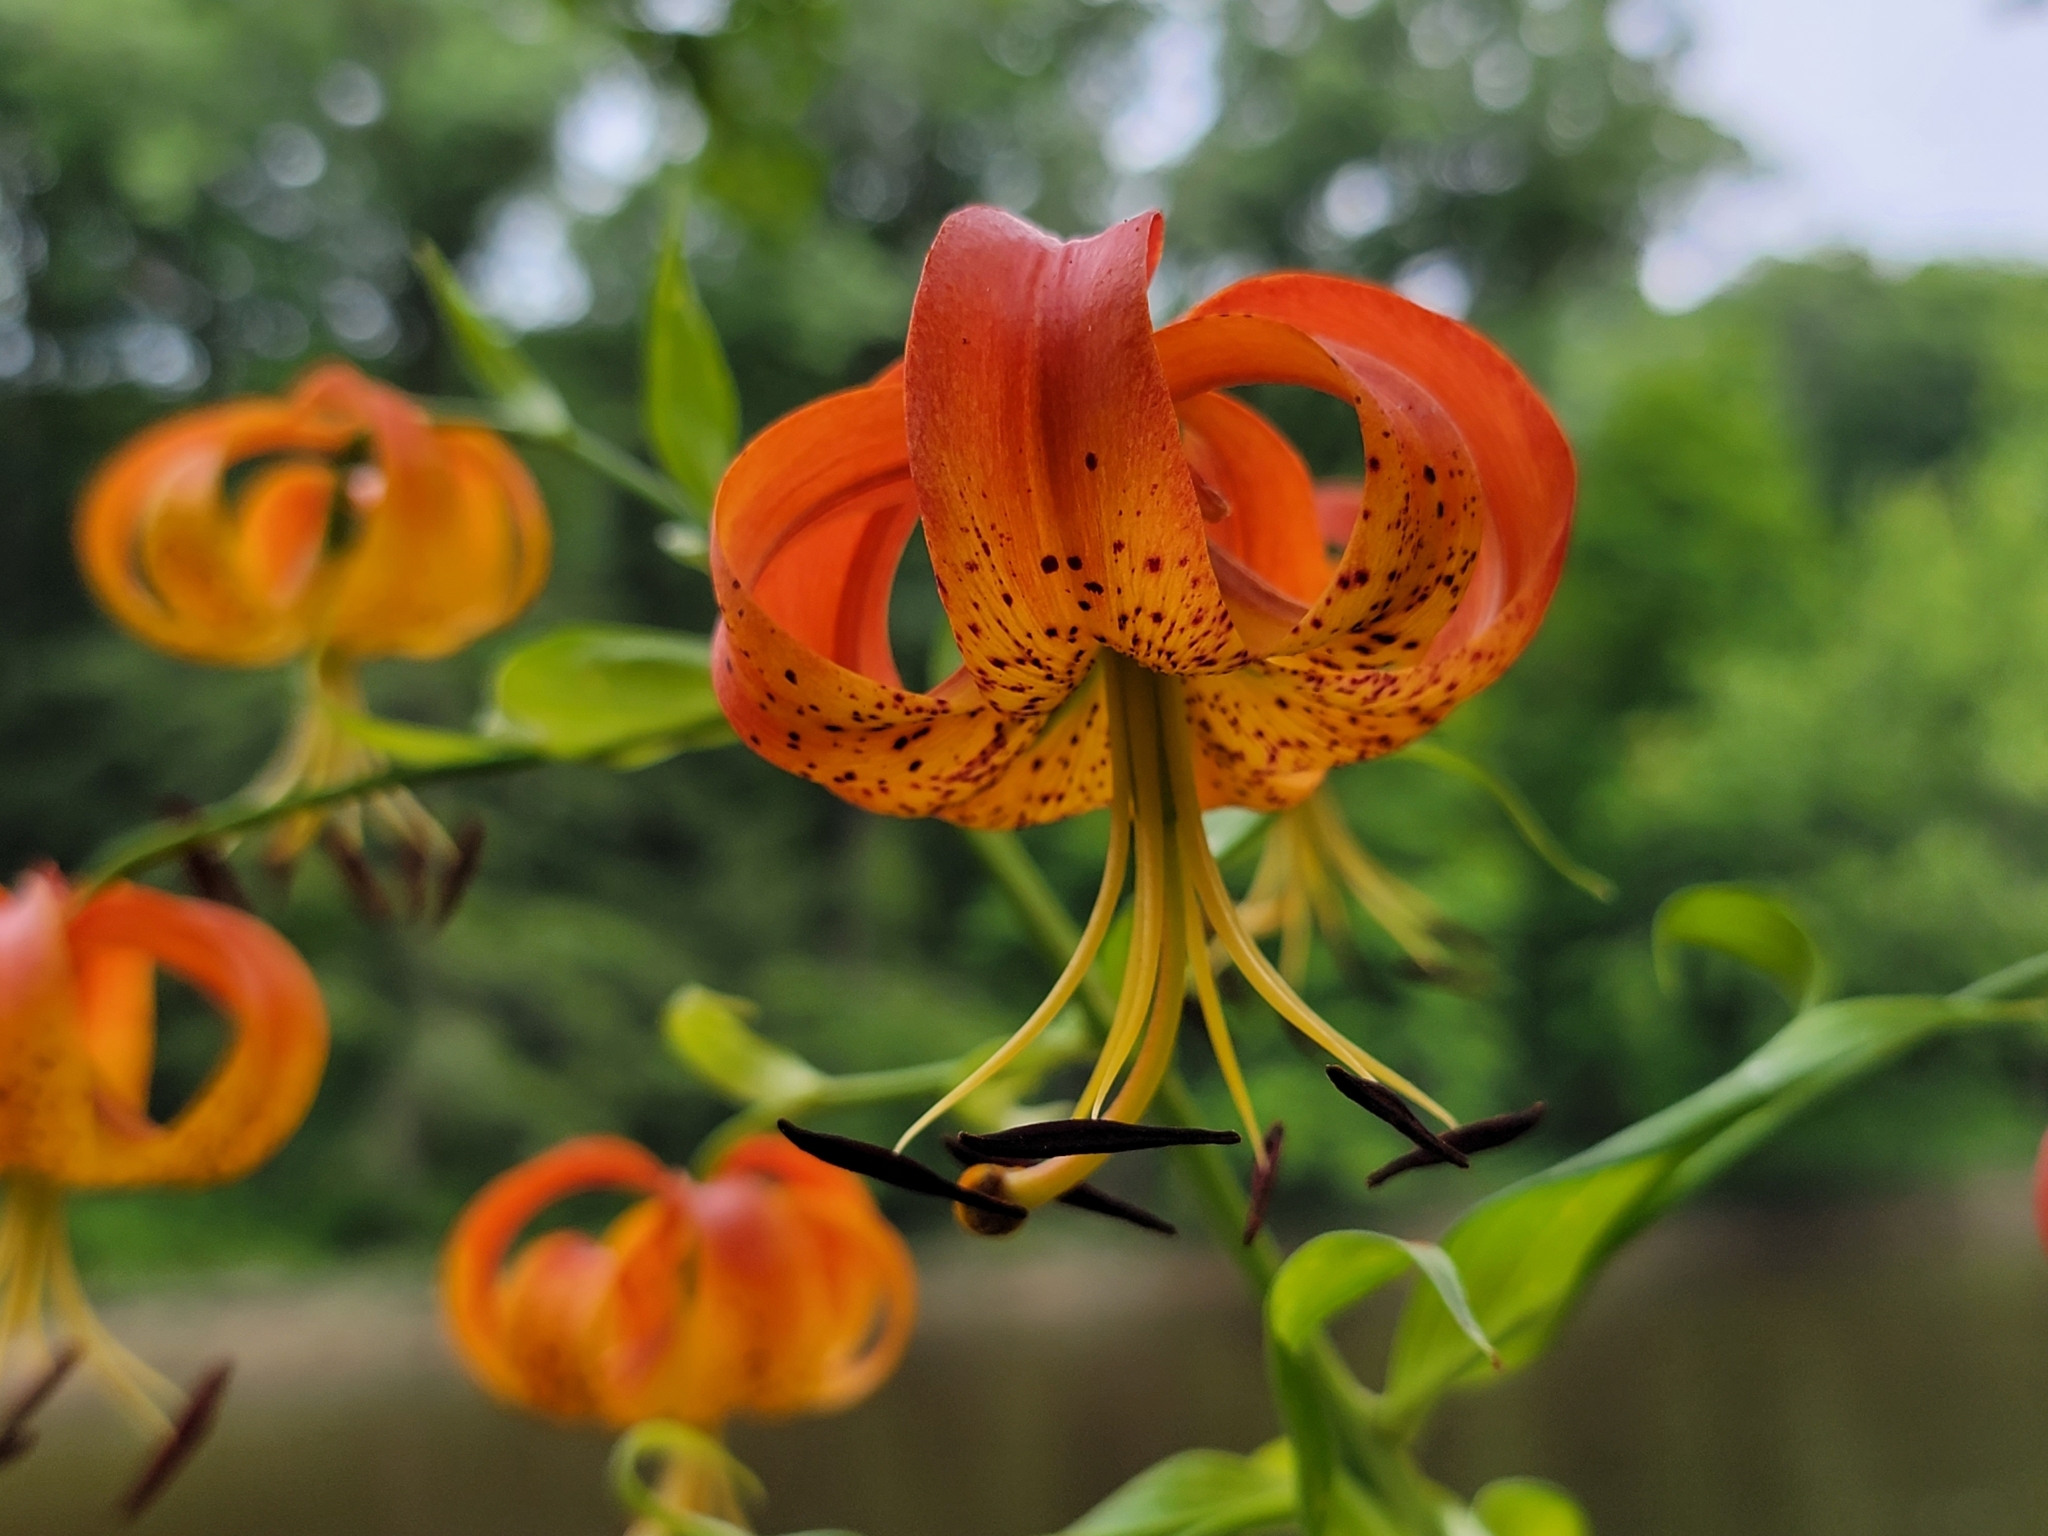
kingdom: Plantae
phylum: Tracheophyta
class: Liliopsida
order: Liliales
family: Liliaceae
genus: Lilium
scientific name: Lilium superbum
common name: American turk's-cap lily
